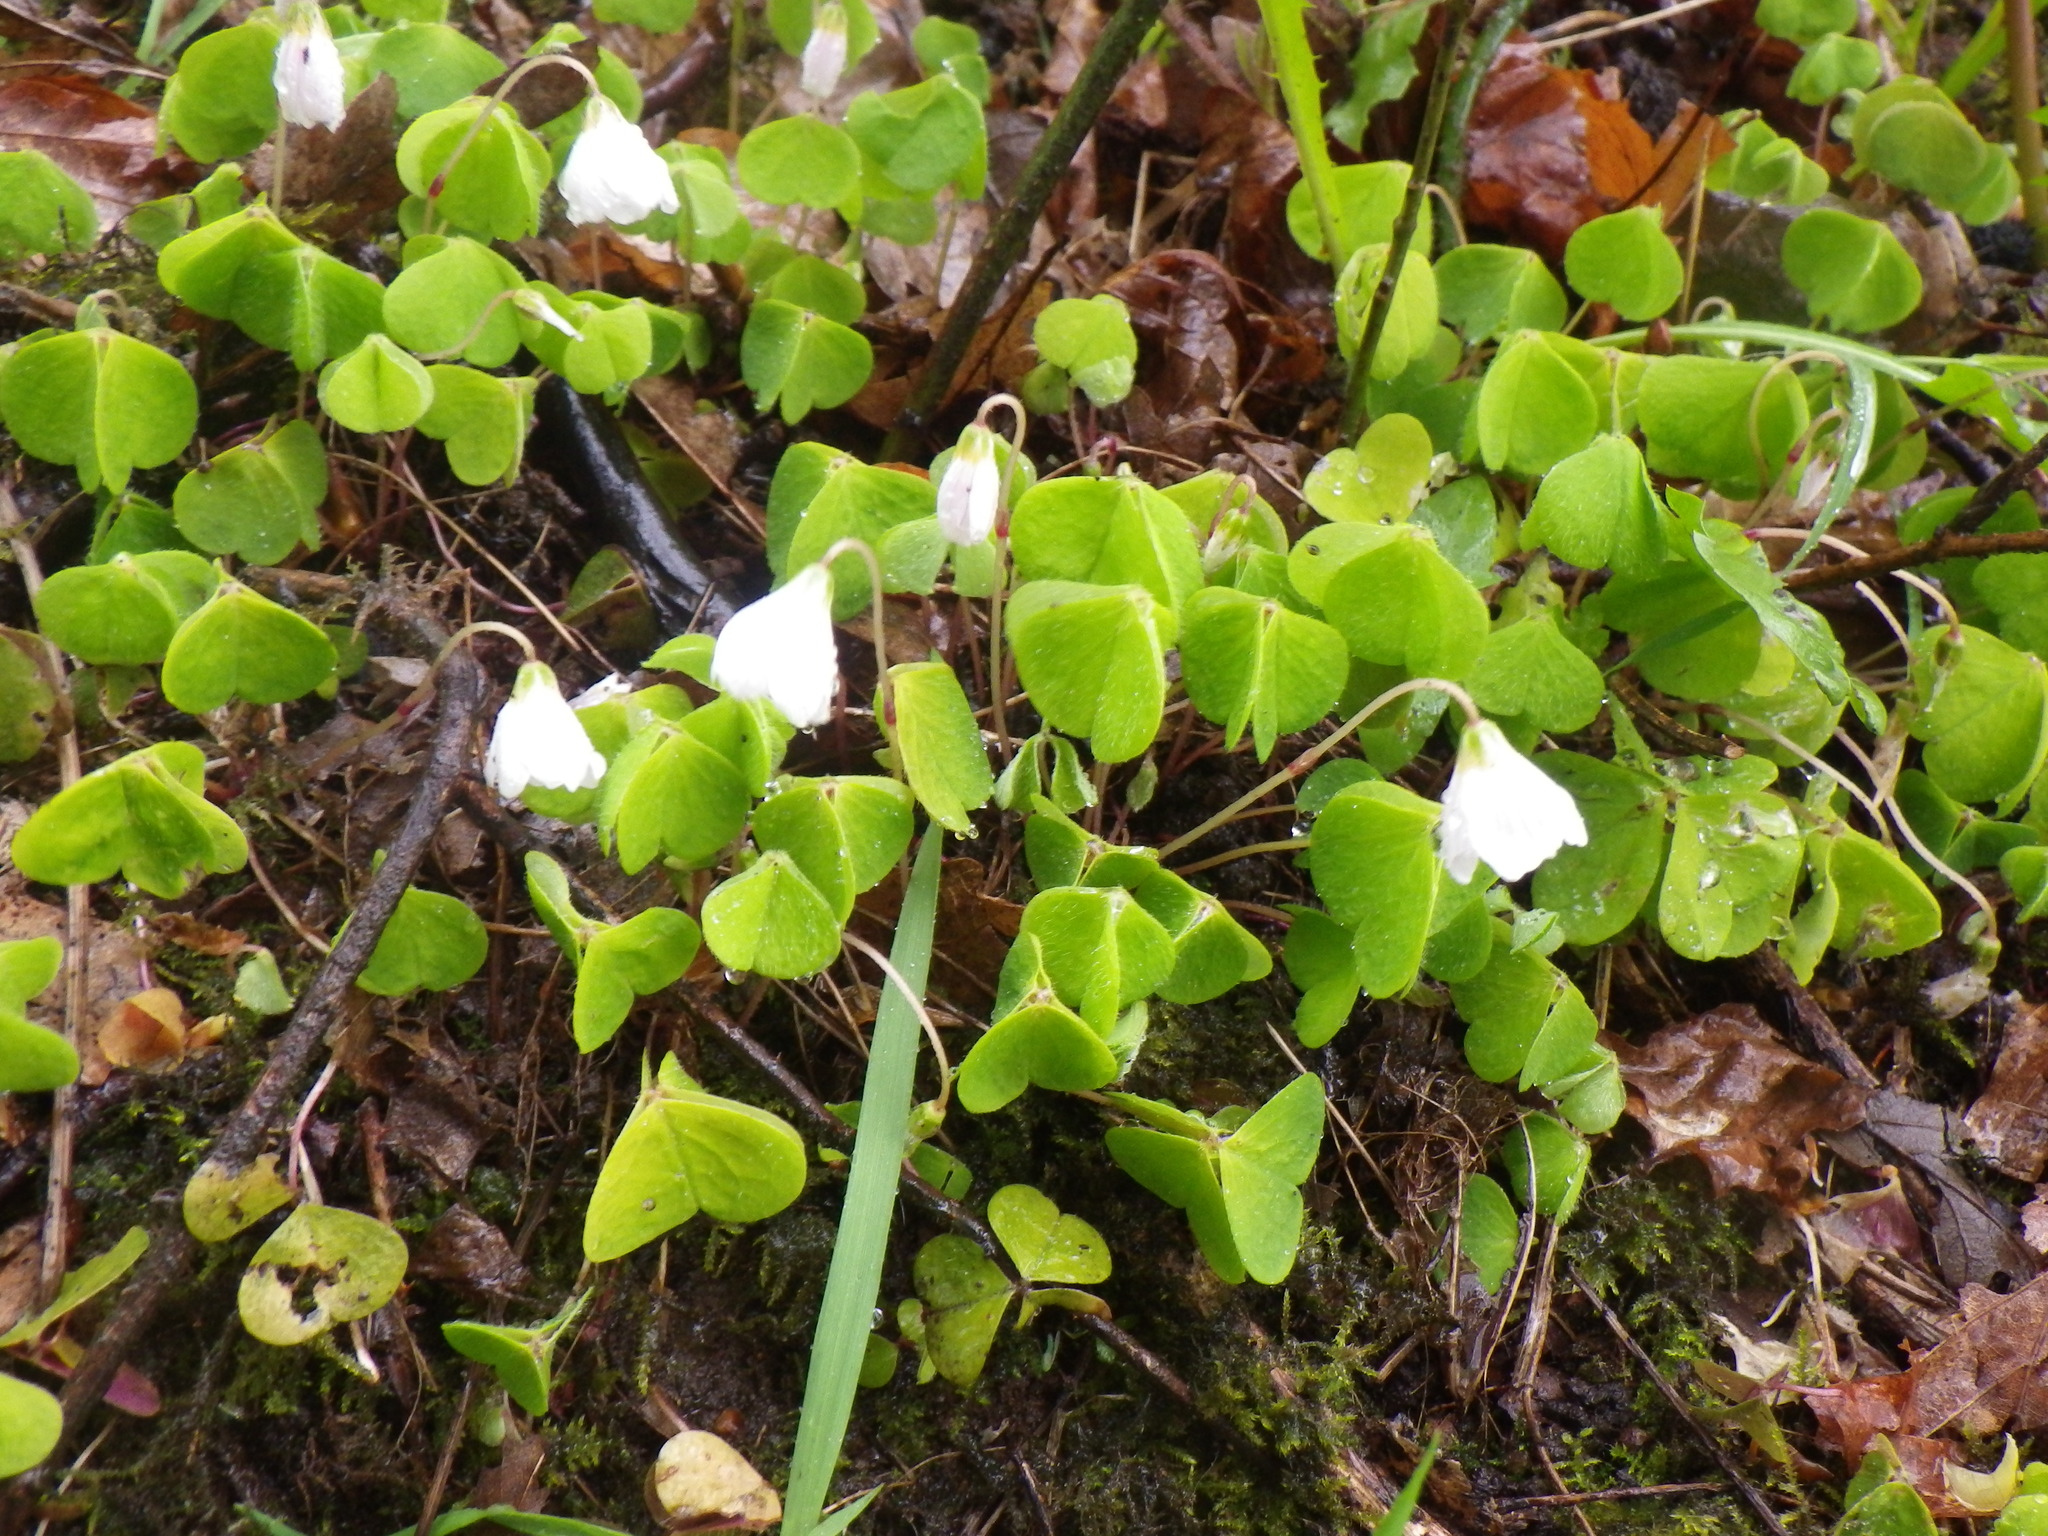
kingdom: Plantae
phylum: Tracheophyta
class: Magnoliopsida
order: Oxalidales
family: Oxalidaceae
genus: Oxalis
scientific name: Oxalis acetosella
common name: Wood-sorrel
